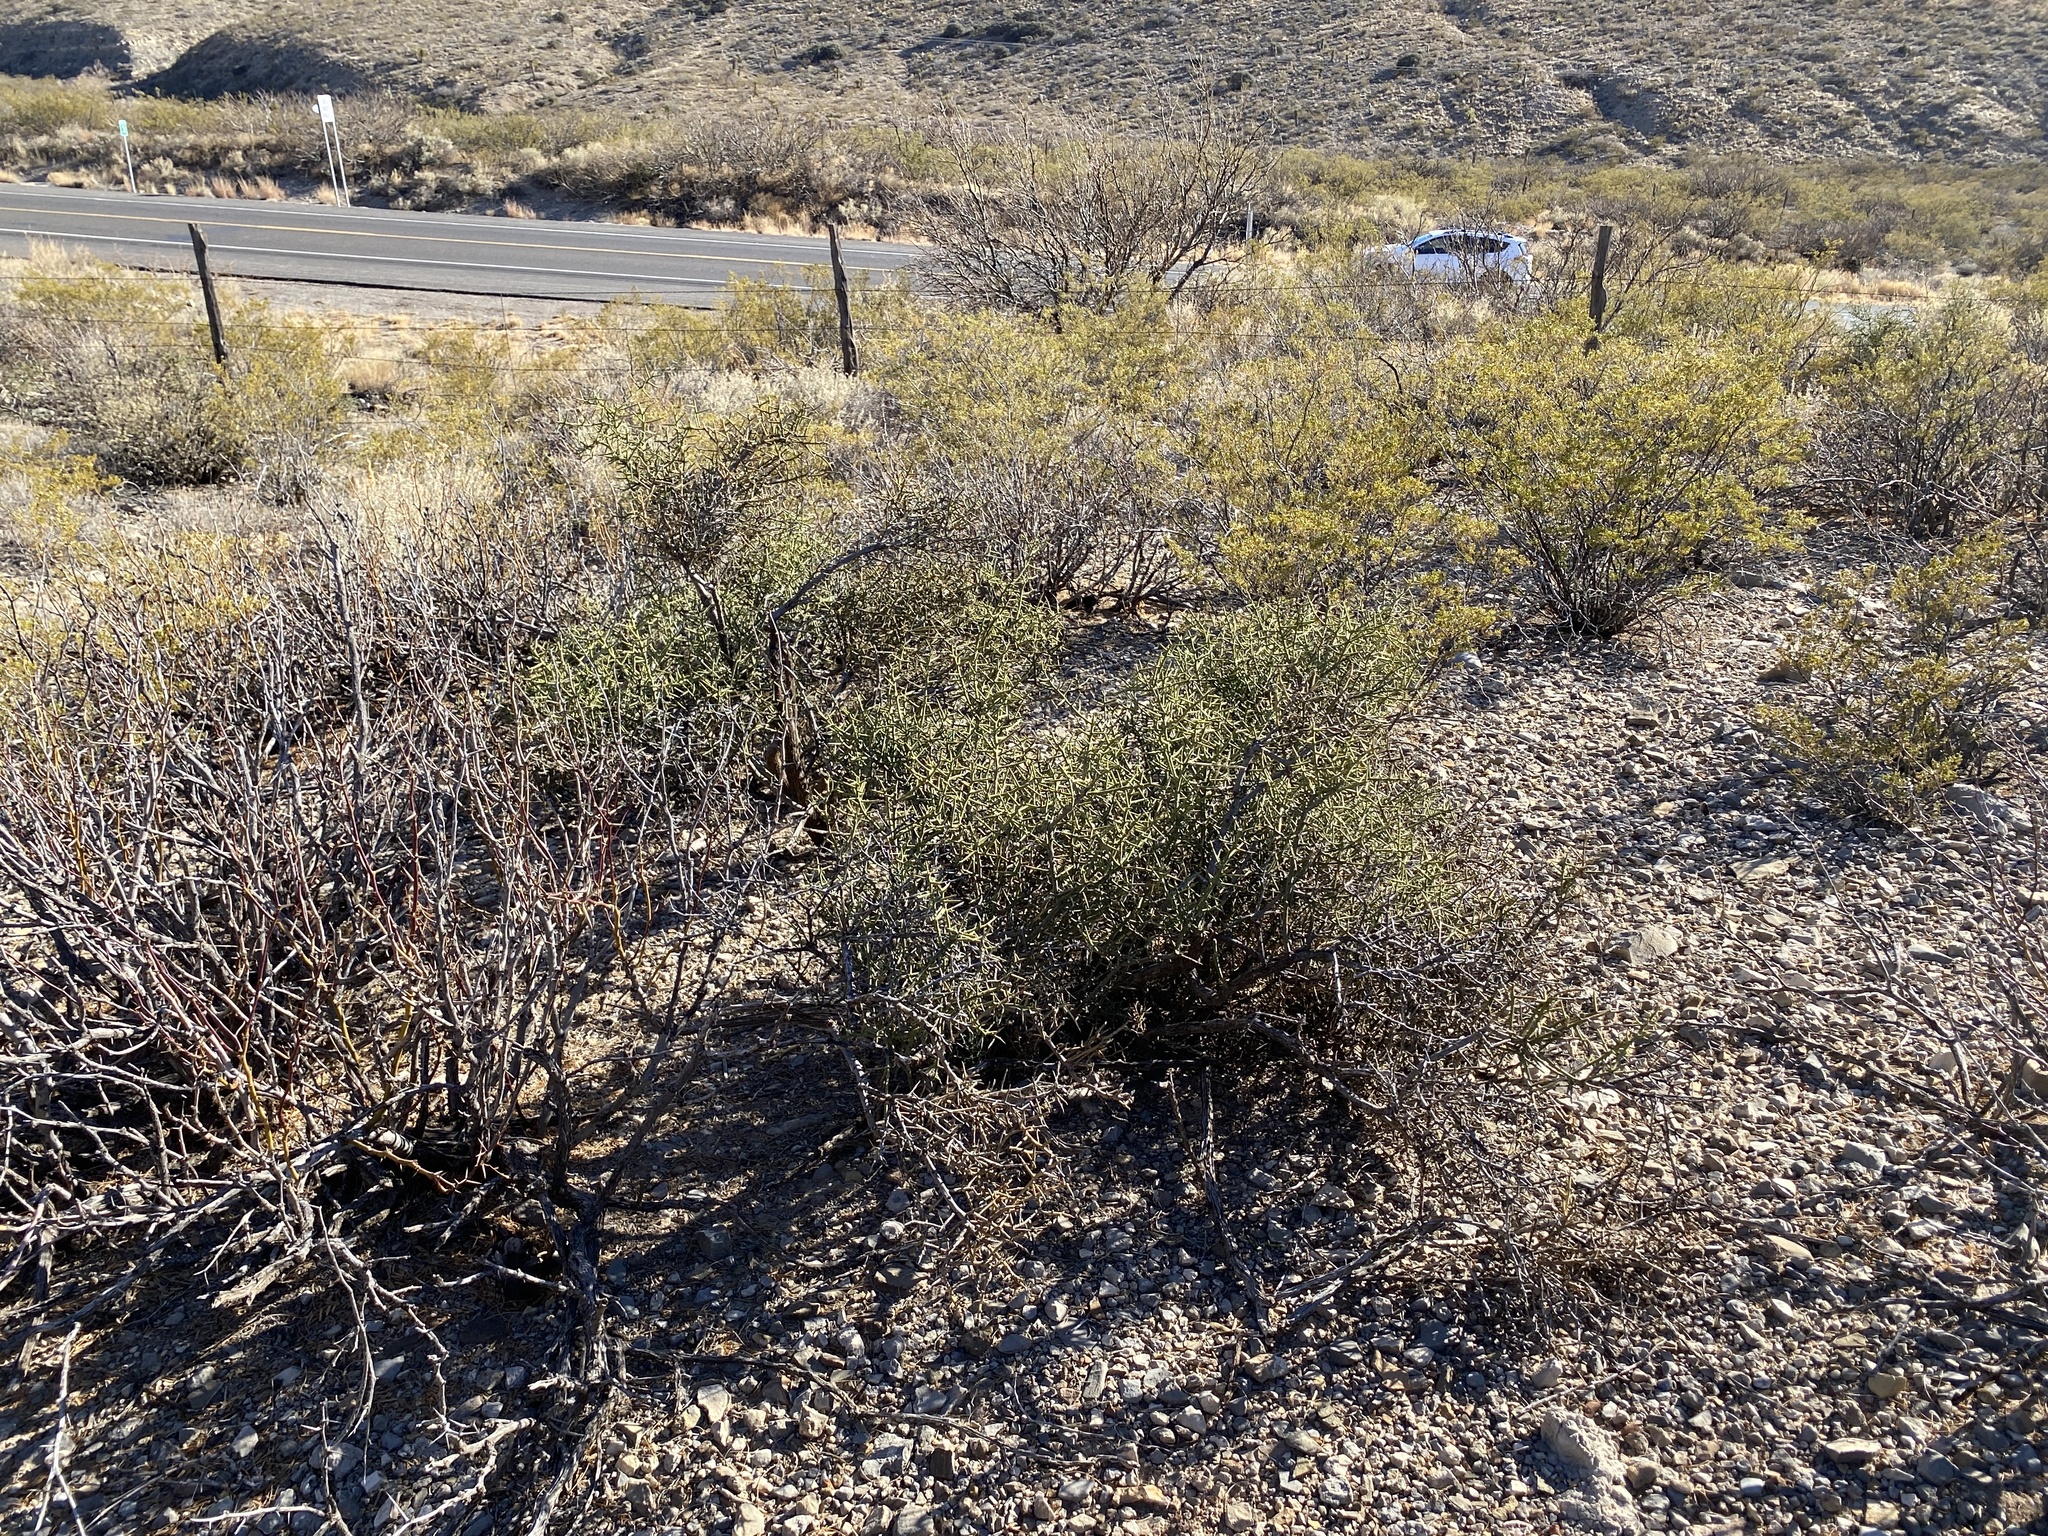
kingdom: Plantae
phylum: Tracheophyta
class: Magnoliopsida
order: Brassicales
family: Koeberliniaceae
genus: Koeberlinia
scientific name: Koeberlinia spinosa
